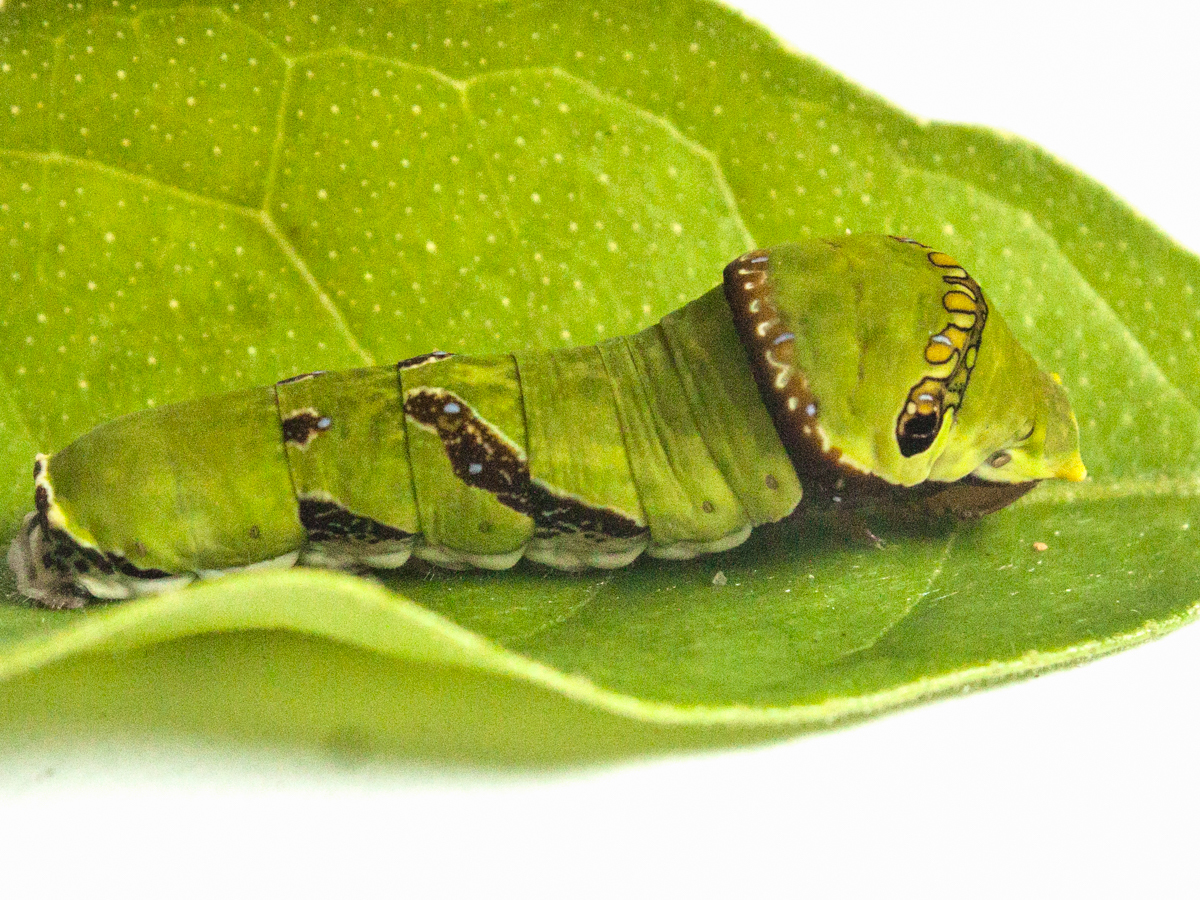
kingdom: Animalia
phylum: Arthropoda
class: Insecta
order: Lepidoptera
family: Papilionidae
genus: Papilio
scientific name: Papilio polytes
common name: Common mormon
